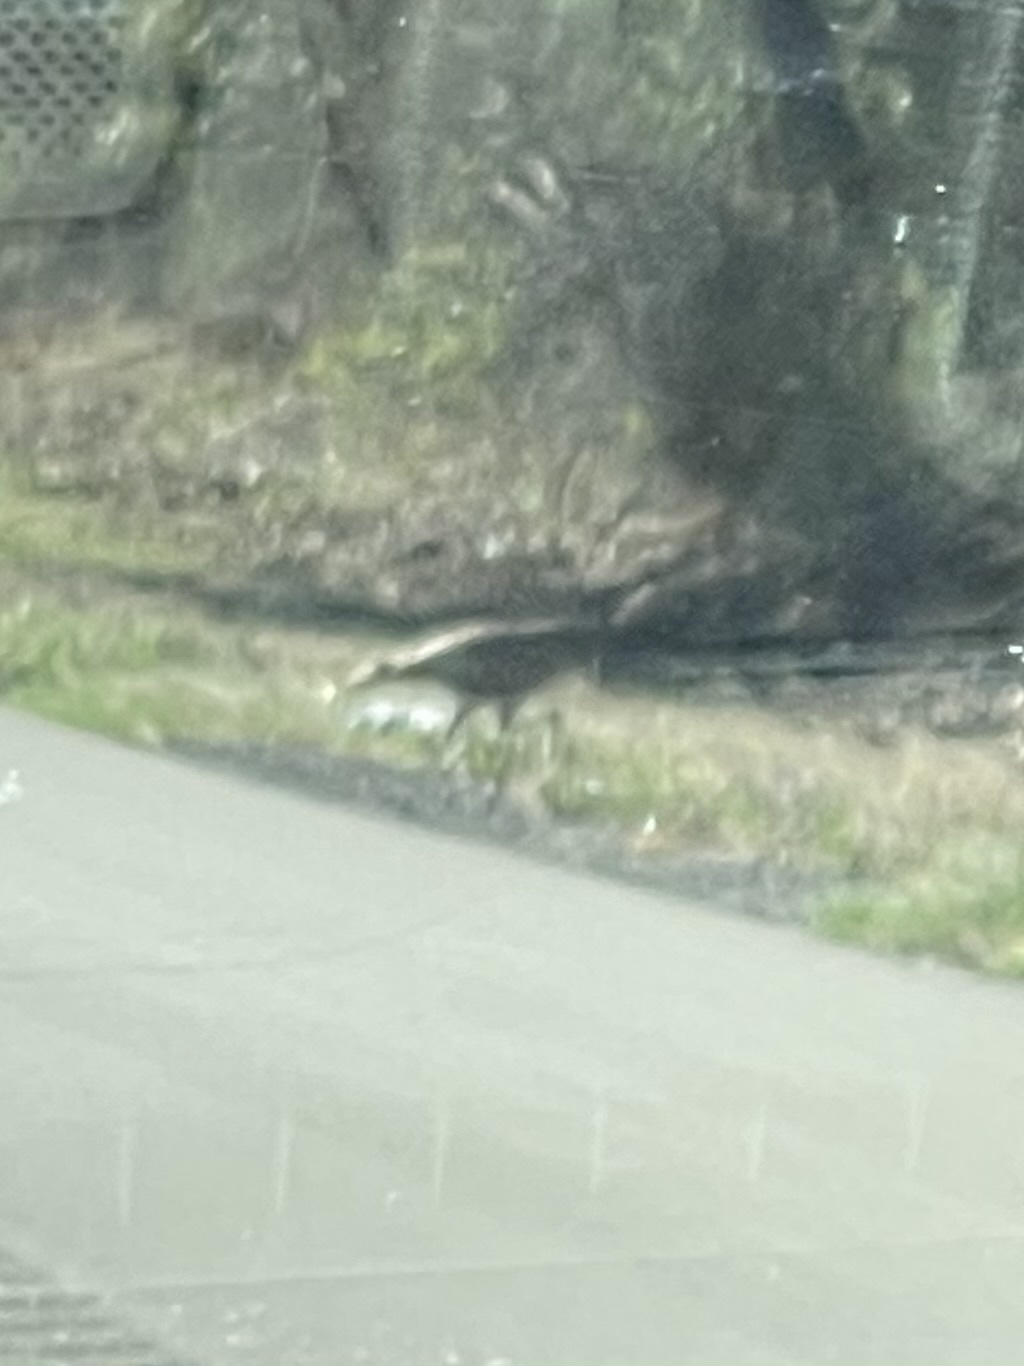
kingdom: Animalia
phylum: Chordata
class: Aves
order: Galliformes
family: Phasianidae
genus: Meleagris
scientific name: Meleagris gallopavo
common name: Wild turkey
